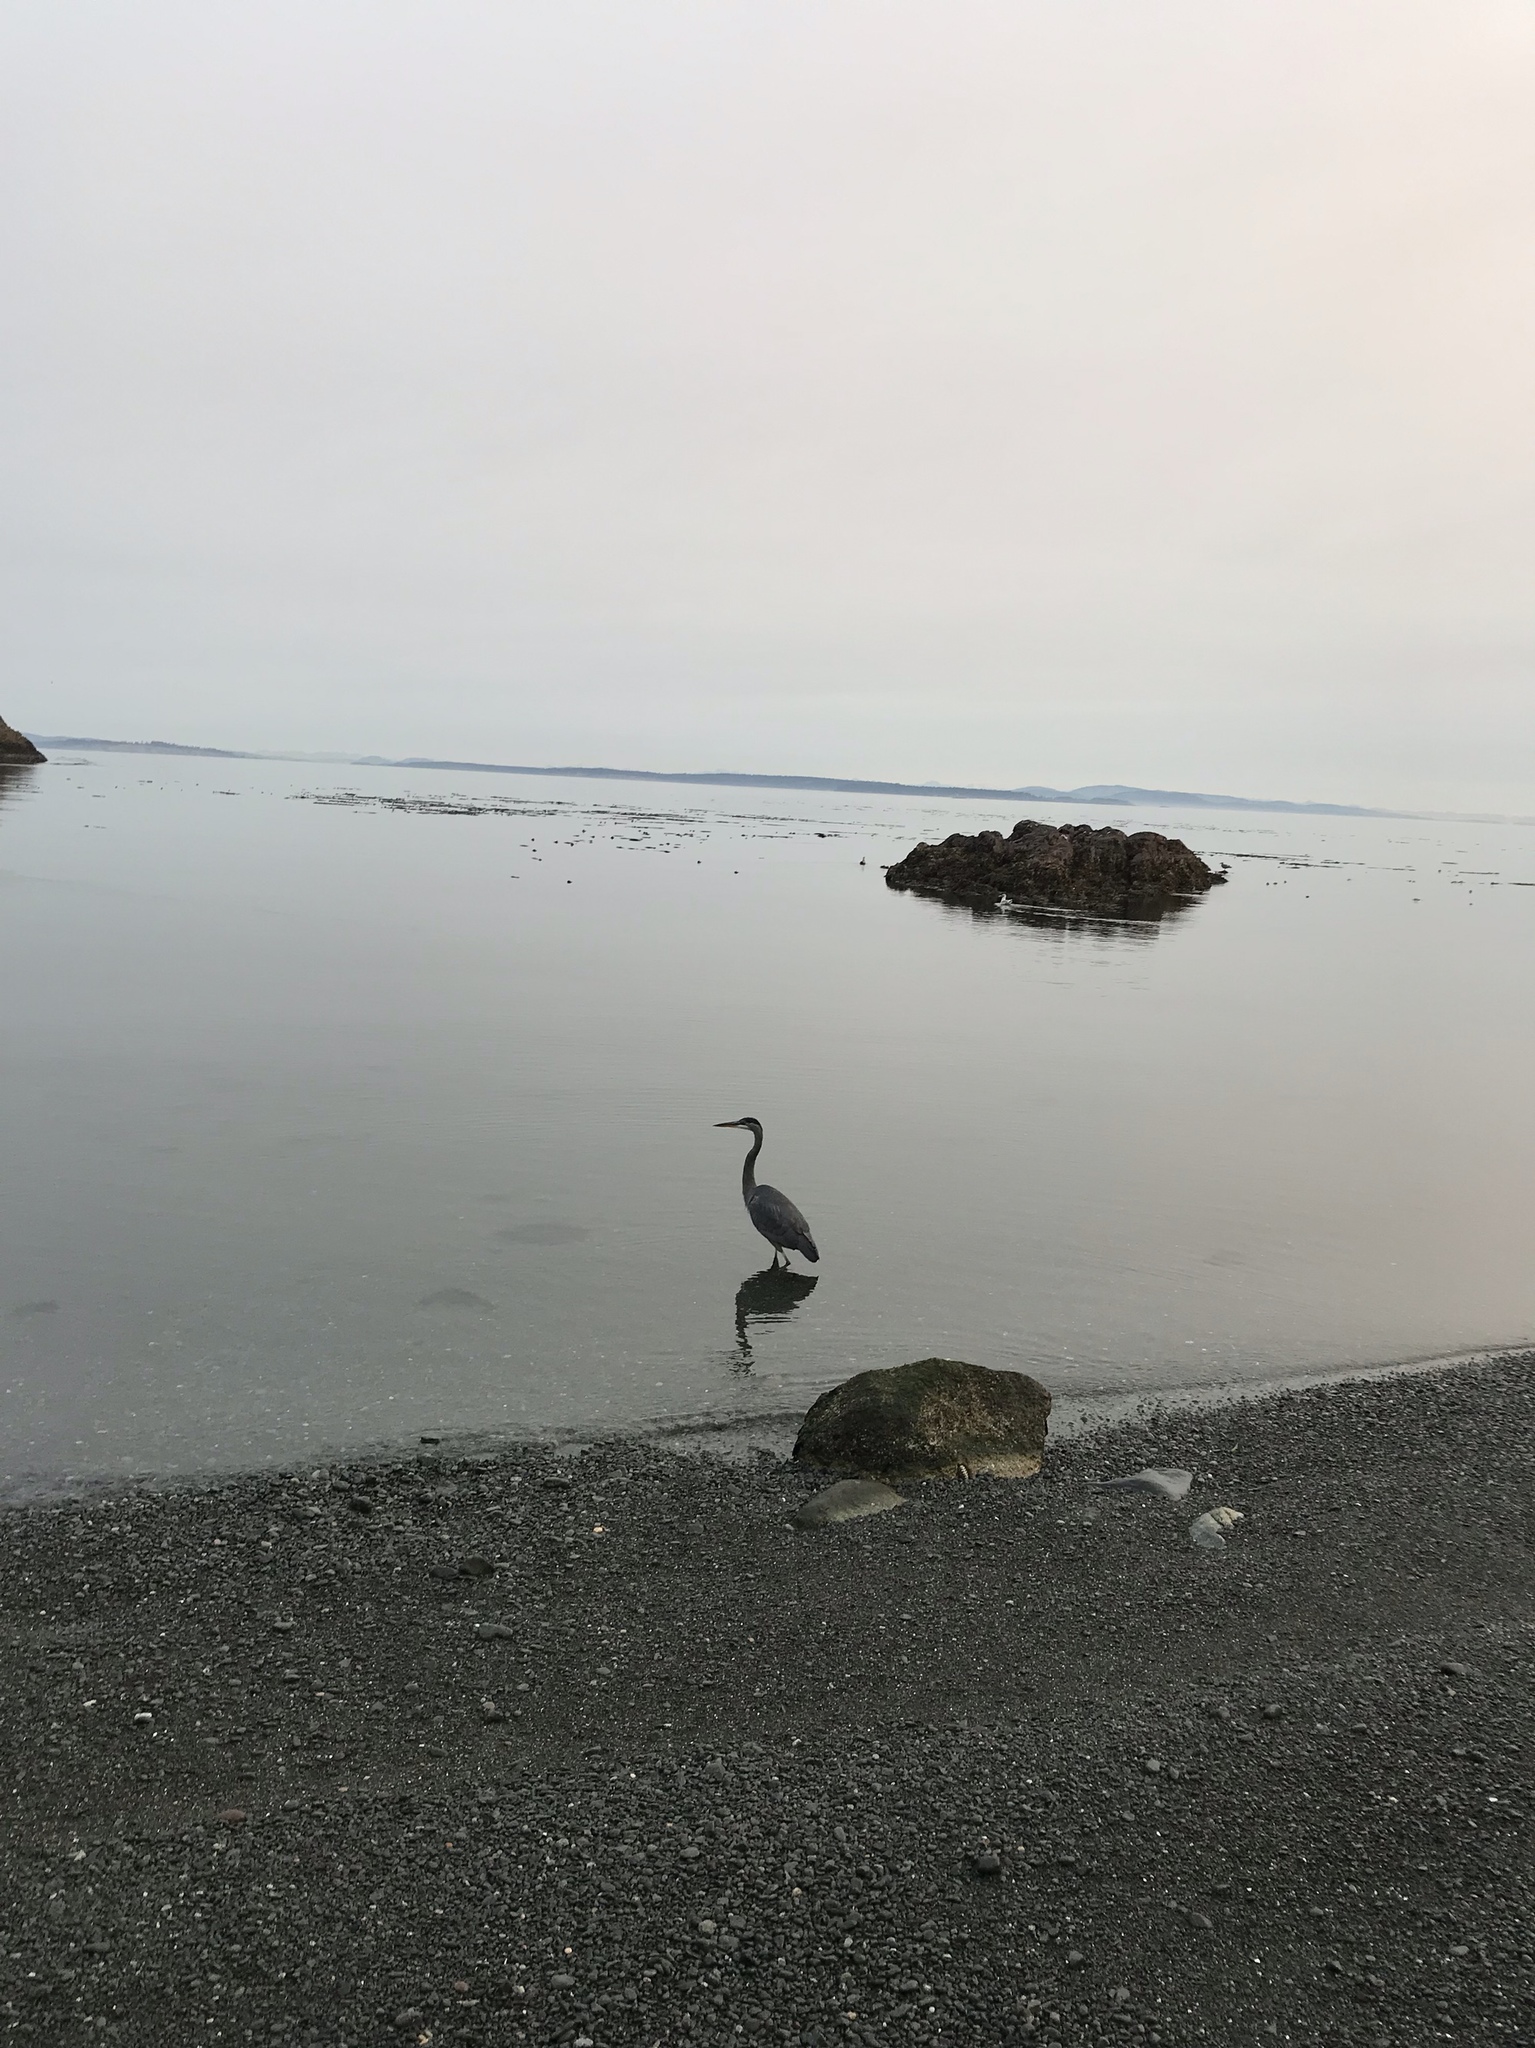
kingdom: Animalia
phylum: Chordata
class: Aves
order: Pelecaniformes
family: Ardeidae
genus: Ardea
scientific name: Ardea herodias
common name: Great blue heron
